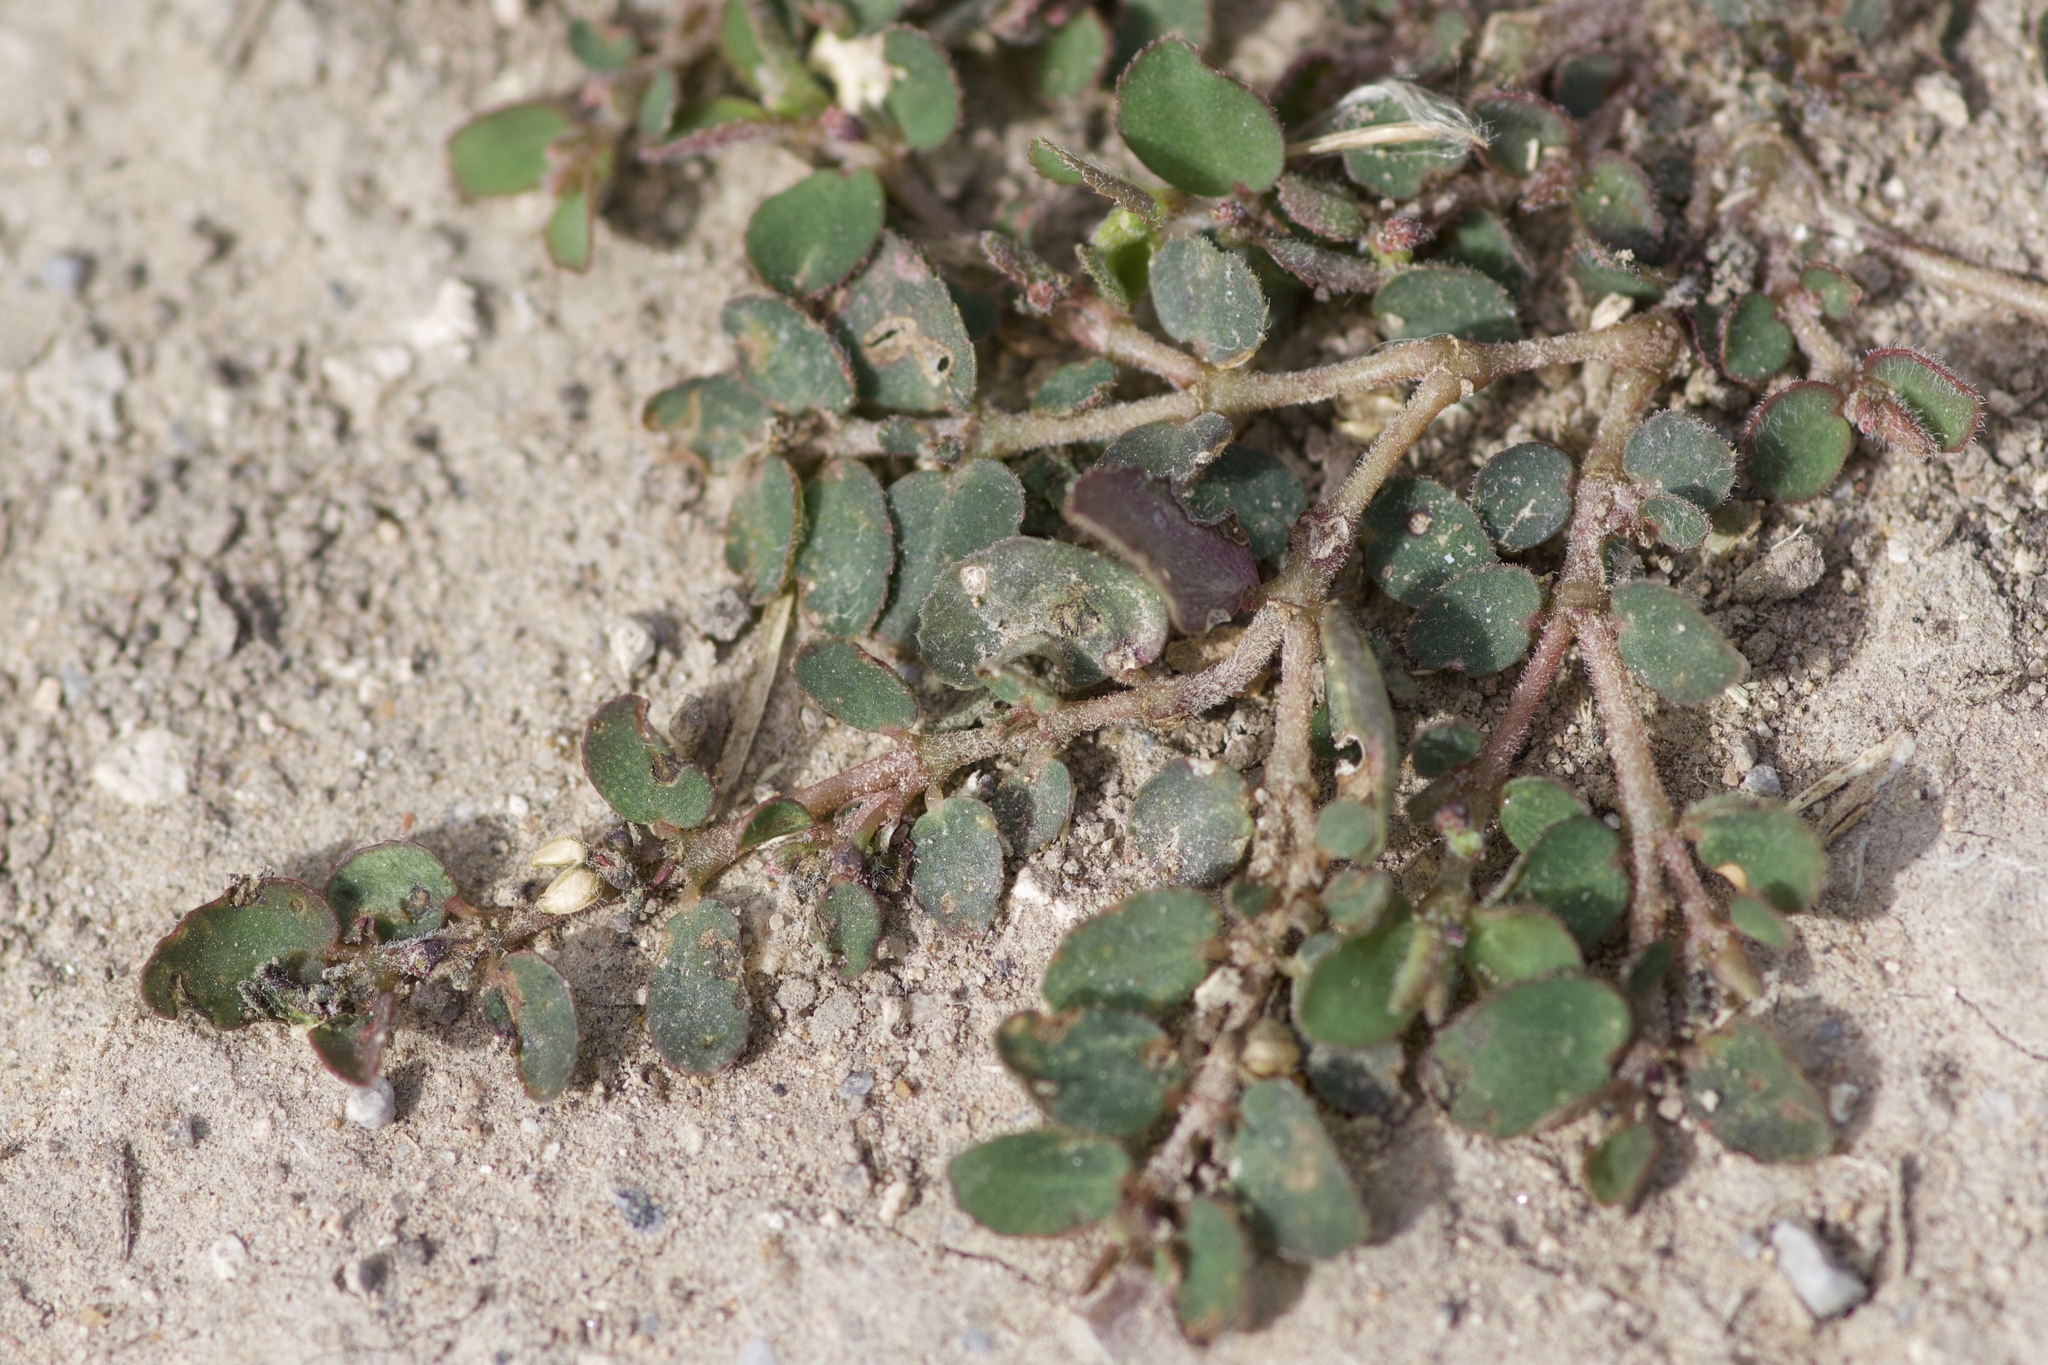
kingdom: Plantae
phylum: Tracheophyta
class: Magnoliopsida
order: Malpighiales
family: Euphorbiaceae
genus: Euphorbia
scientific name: Euphorbia prostrata
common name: Prostrate sandmat
